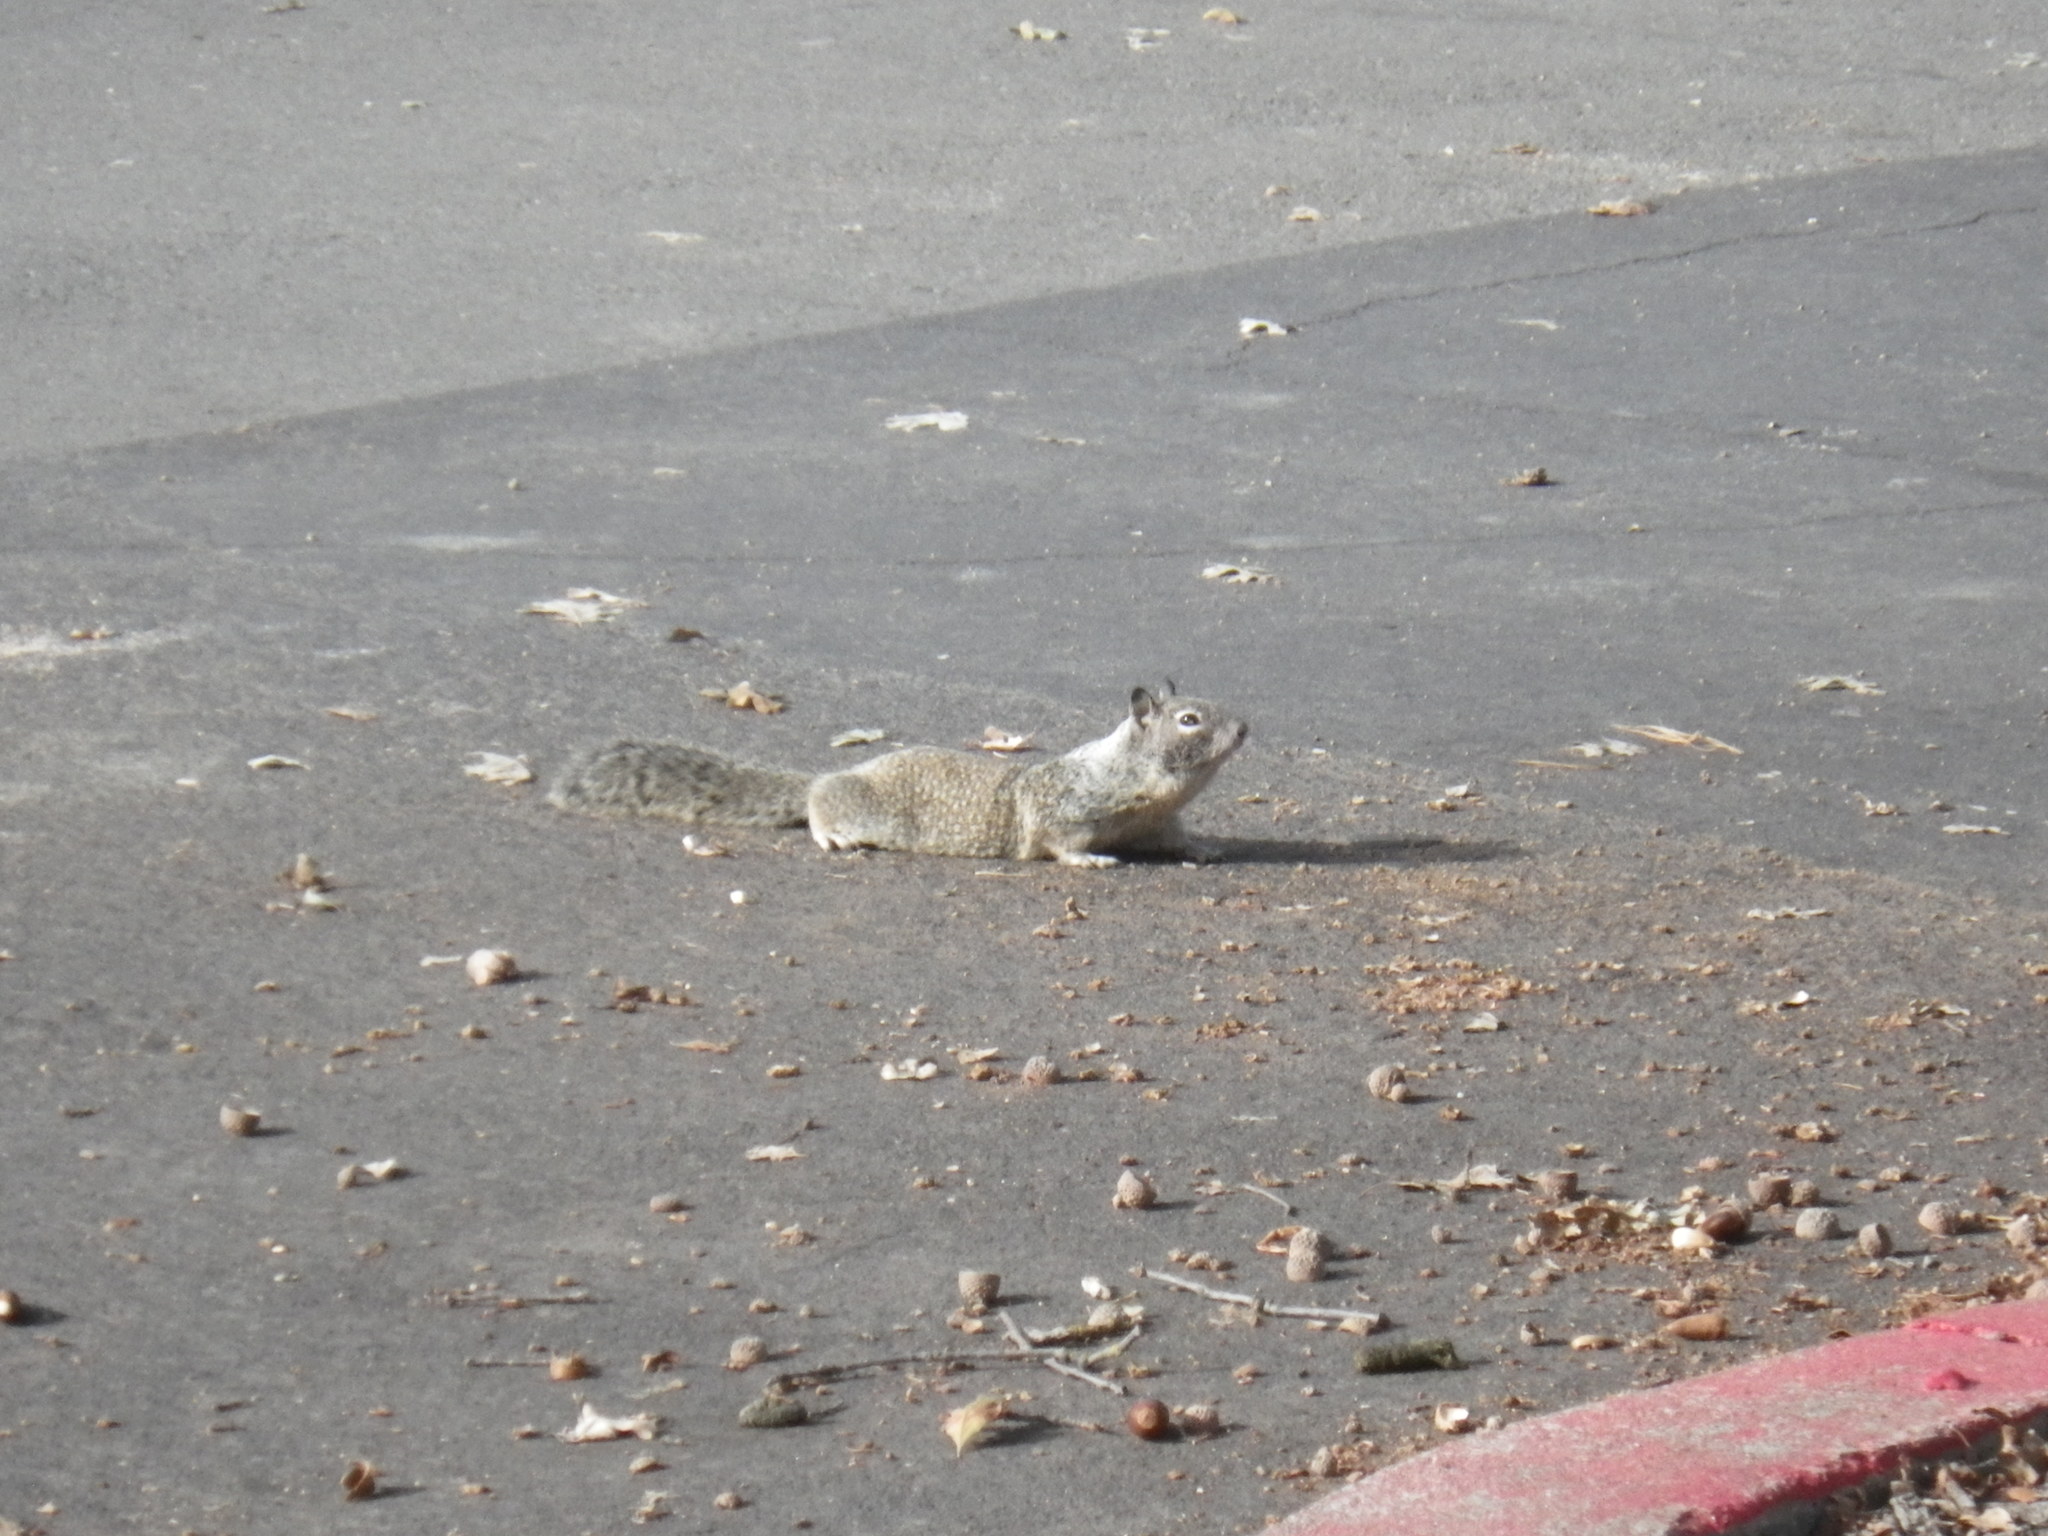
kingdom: Animalia
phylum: Chordata
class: Mammalia
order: Rodentia
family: Sciuridae
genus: Otospermophilus
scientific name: Otospermophilus beecheyi
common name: California ground squirrel
